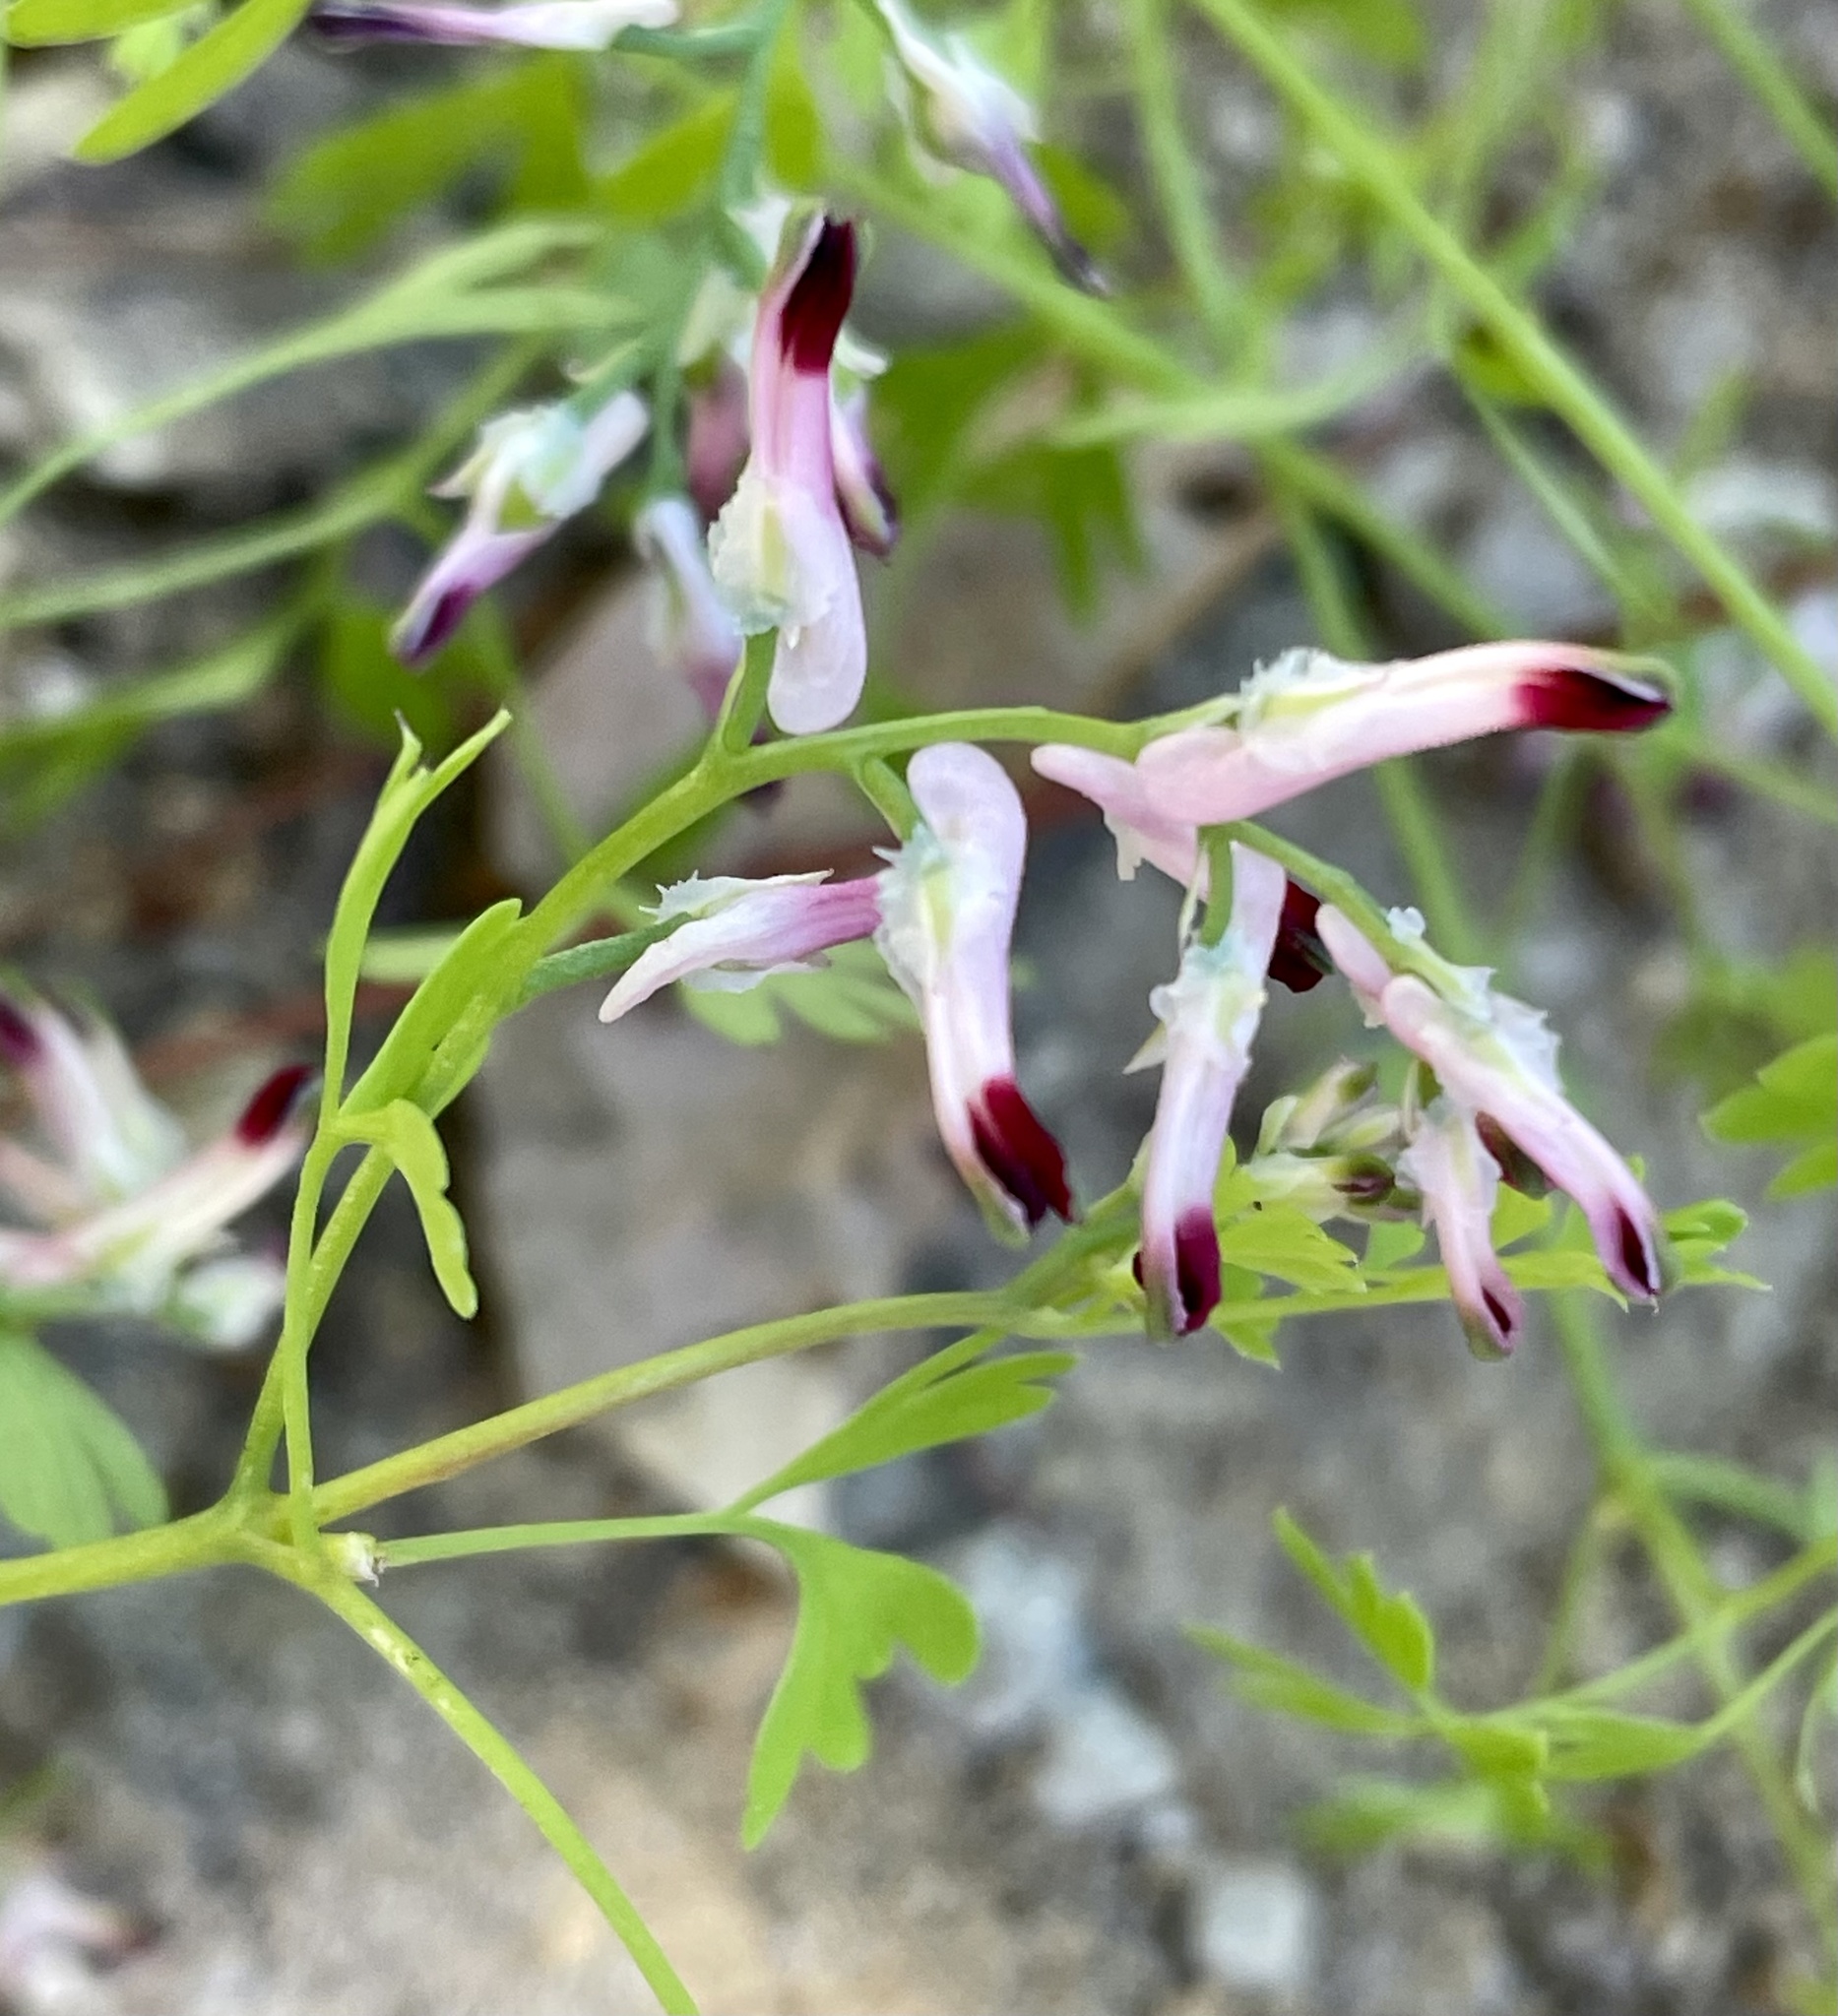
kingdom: Plantae
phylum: Tracheophyta
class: Magnoliopsida
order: Ranunculales
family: Papaveraceae
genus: Fumaria
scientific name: Fumaria muralis
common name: Common ramping-fumitory
